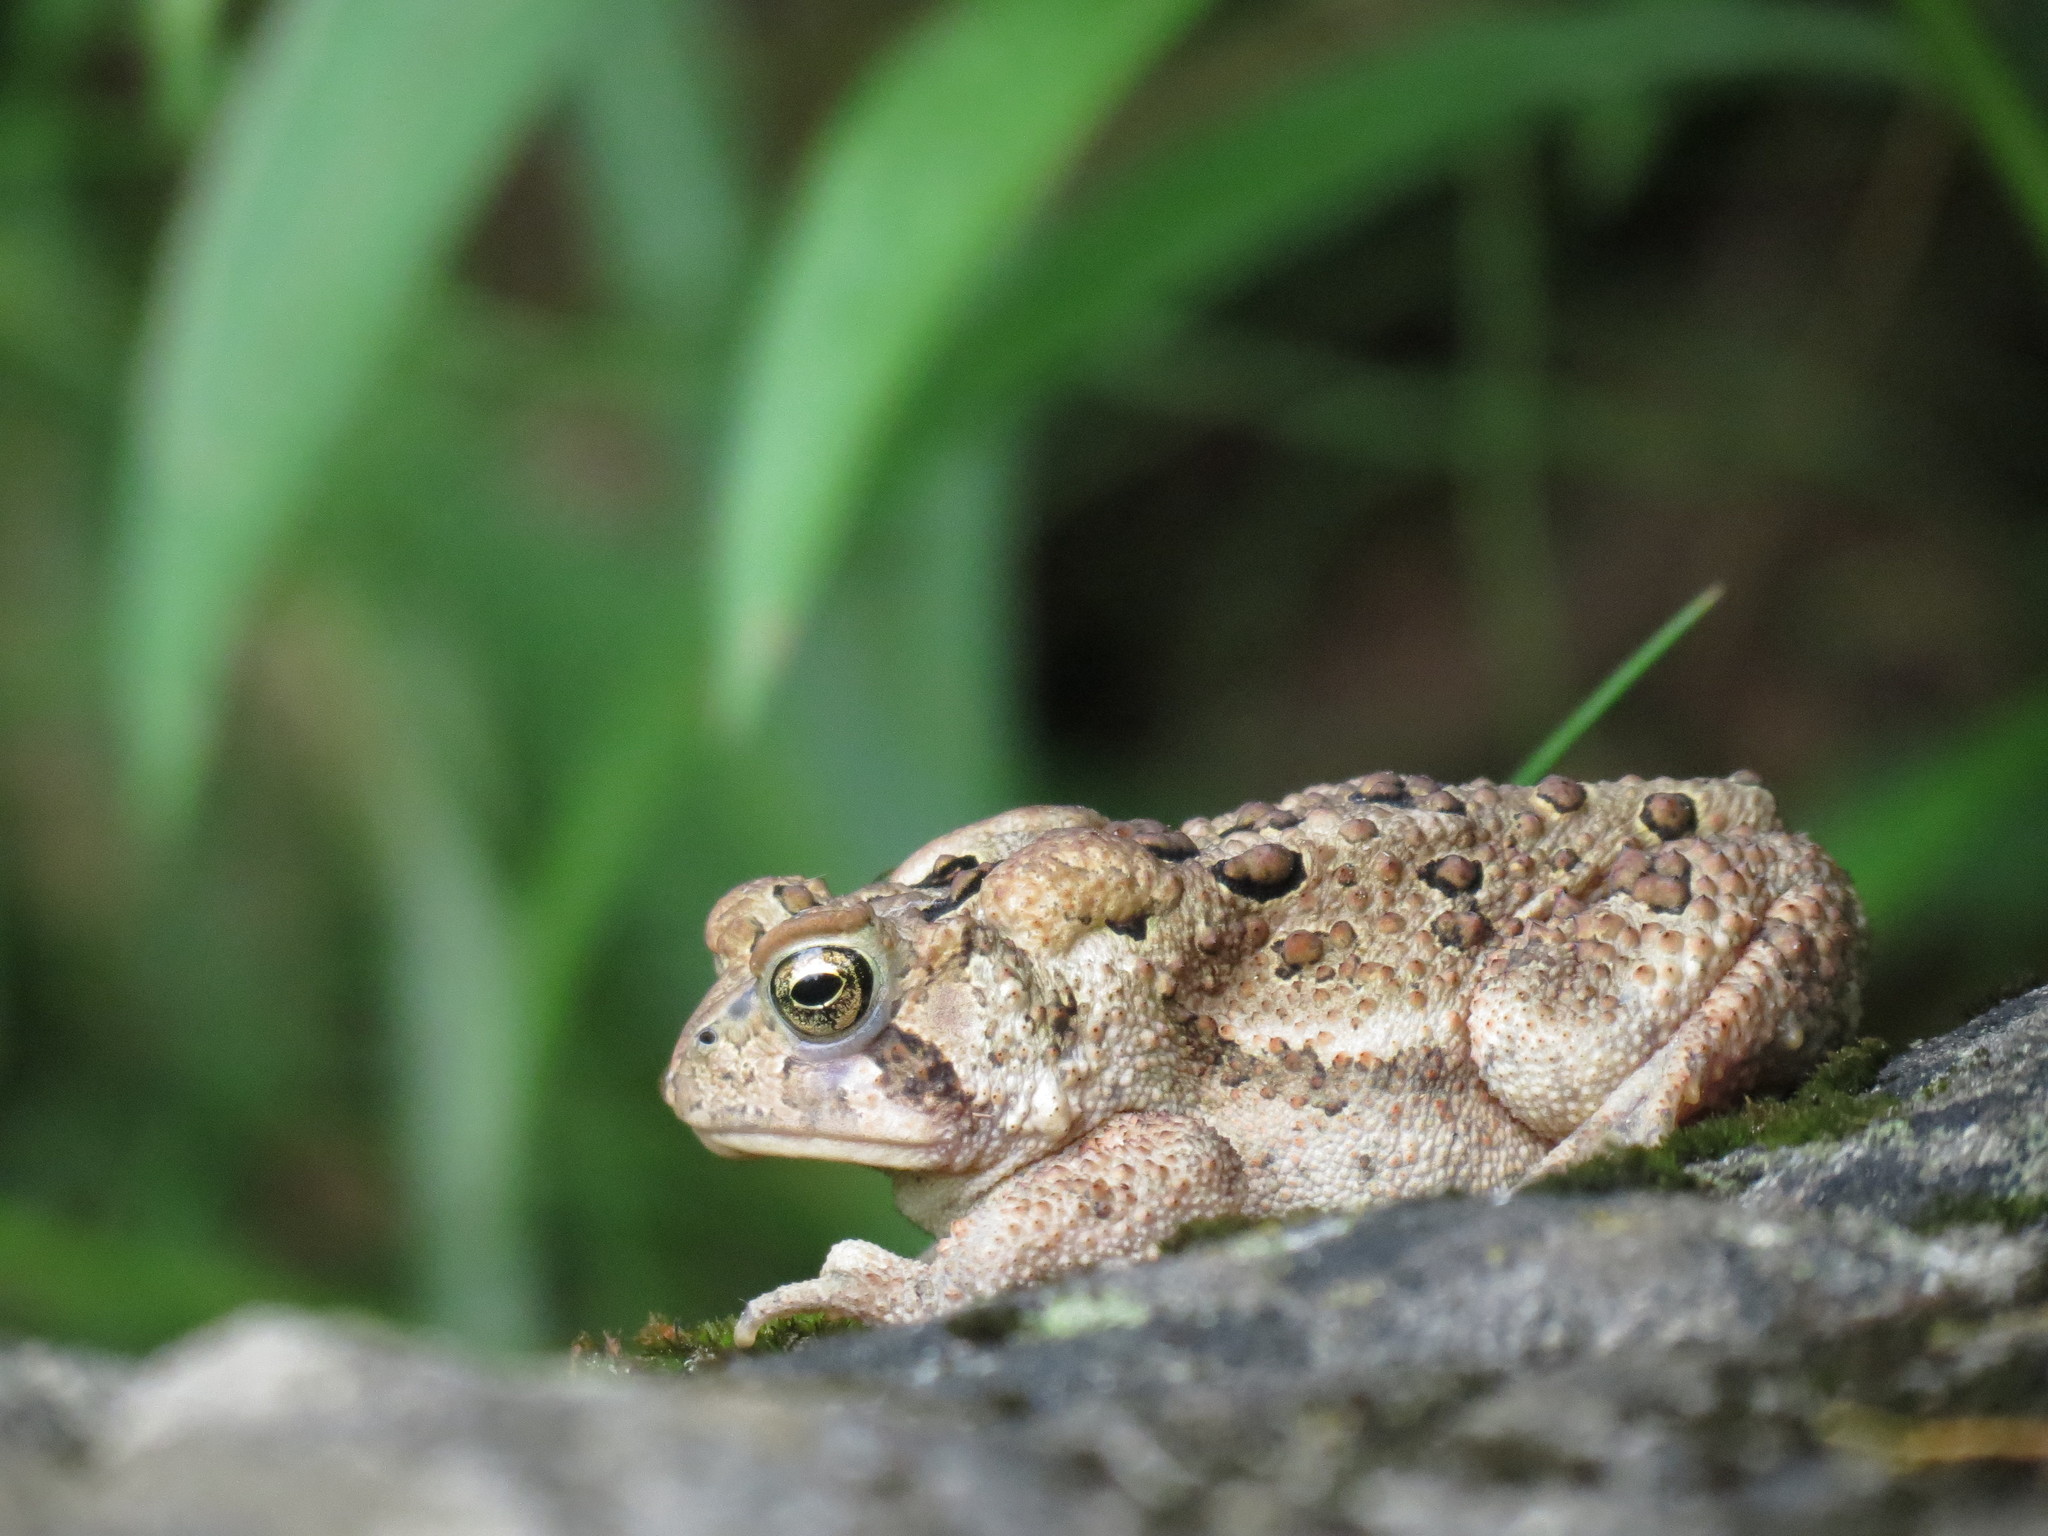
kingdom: Animalia
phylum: Chordata
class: Amphibia
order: Anura
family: Bufonidae
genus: Anaxyrus
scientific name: Anaxyrus americanus
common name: American toad
